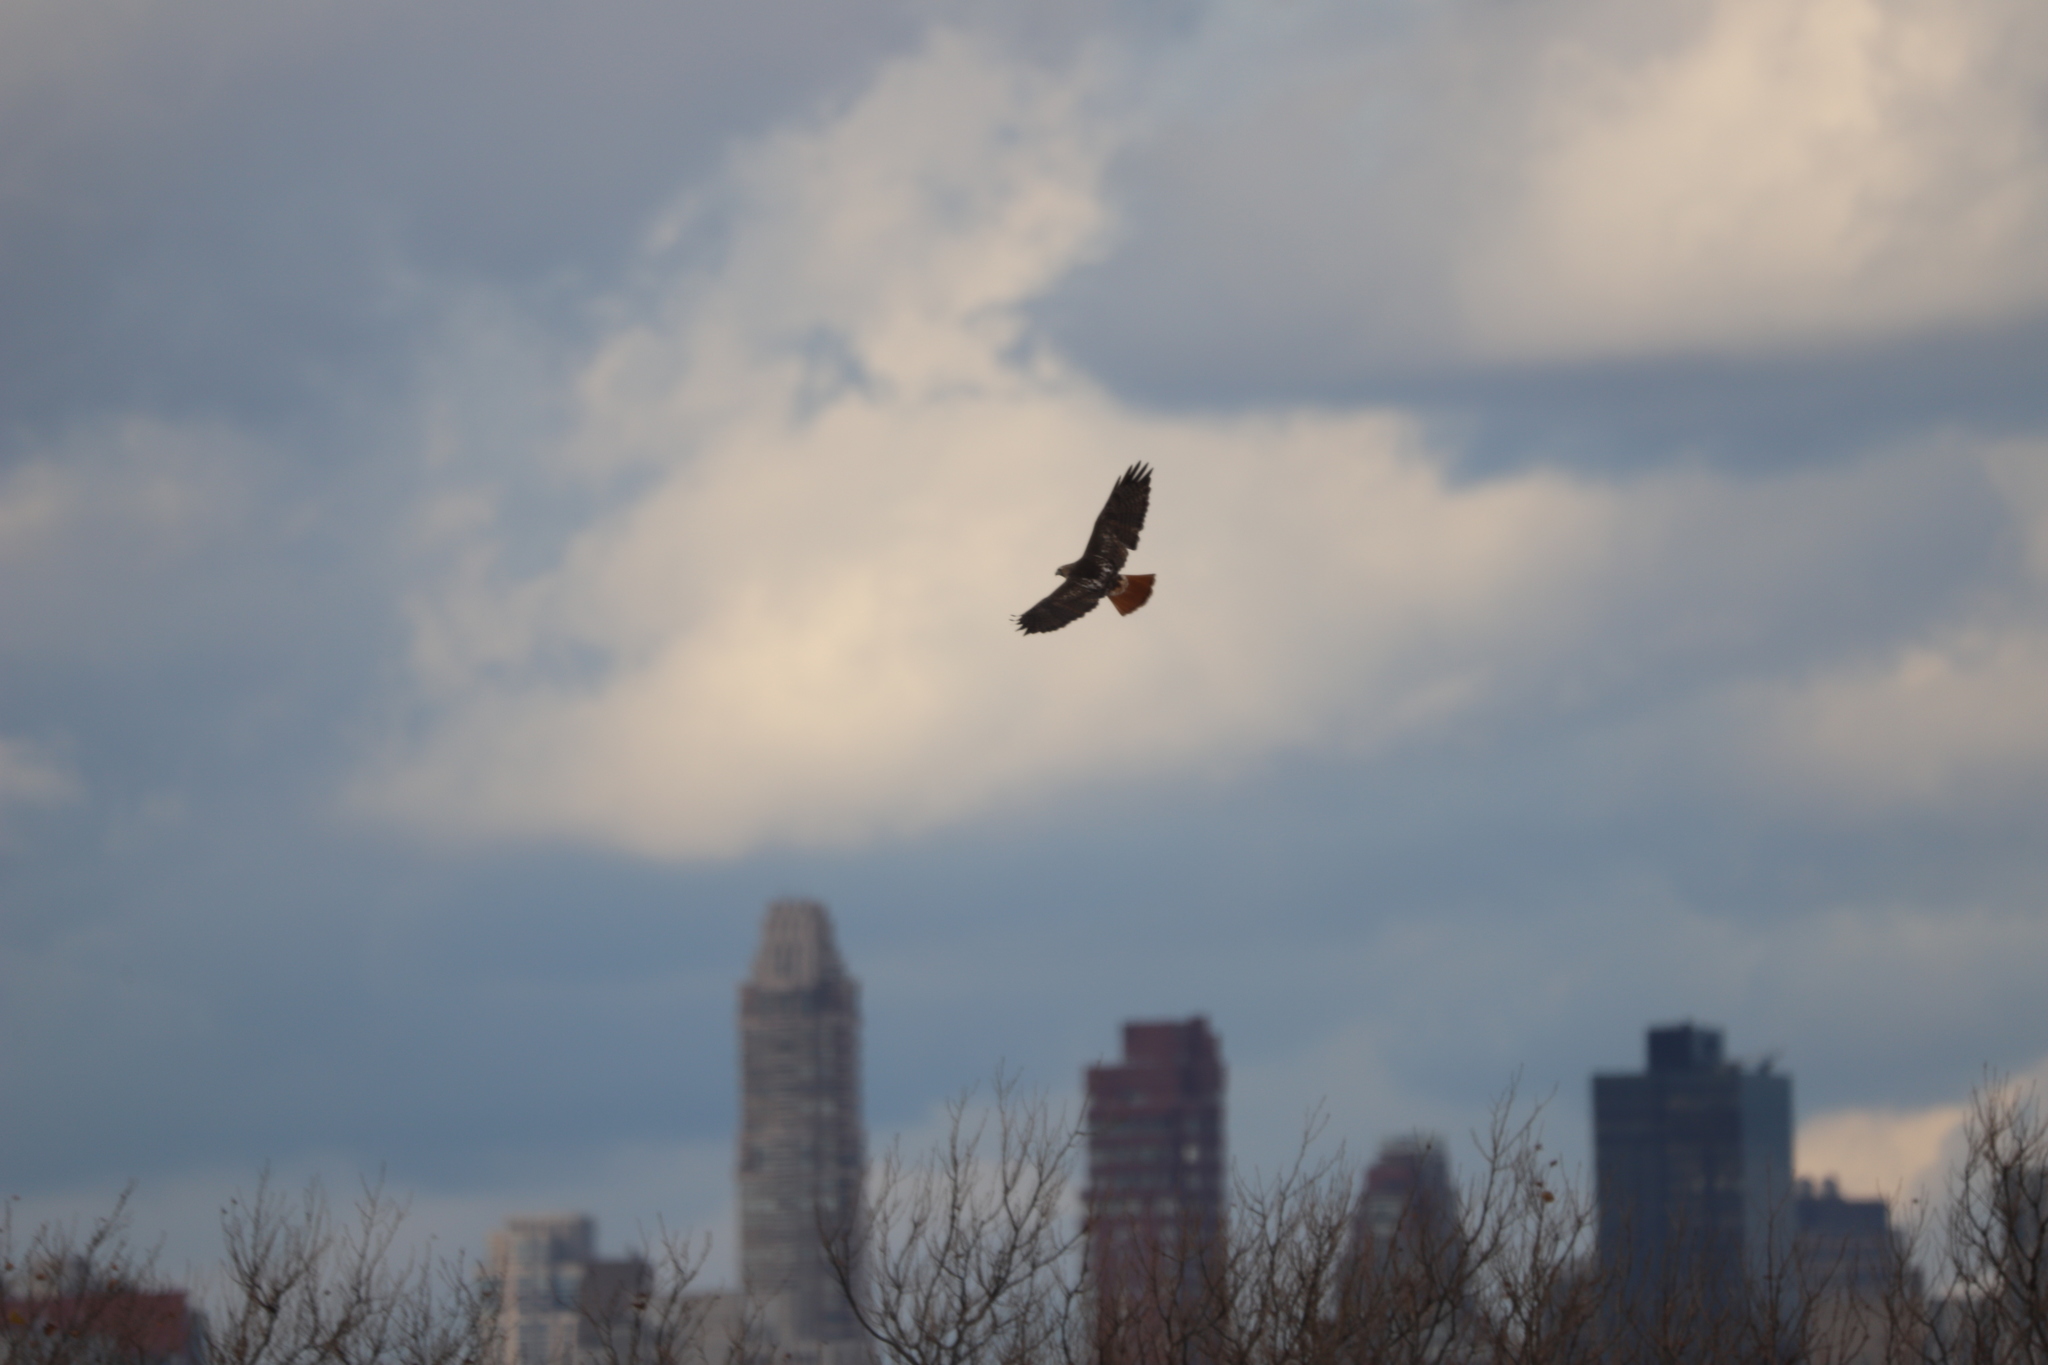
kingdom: Animalia
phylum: Chordata
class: Aves
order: Accipitriformes
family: Accipitridae
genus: Buteo
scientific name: Buteo jamaicensis
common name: Red-tailed hawk
